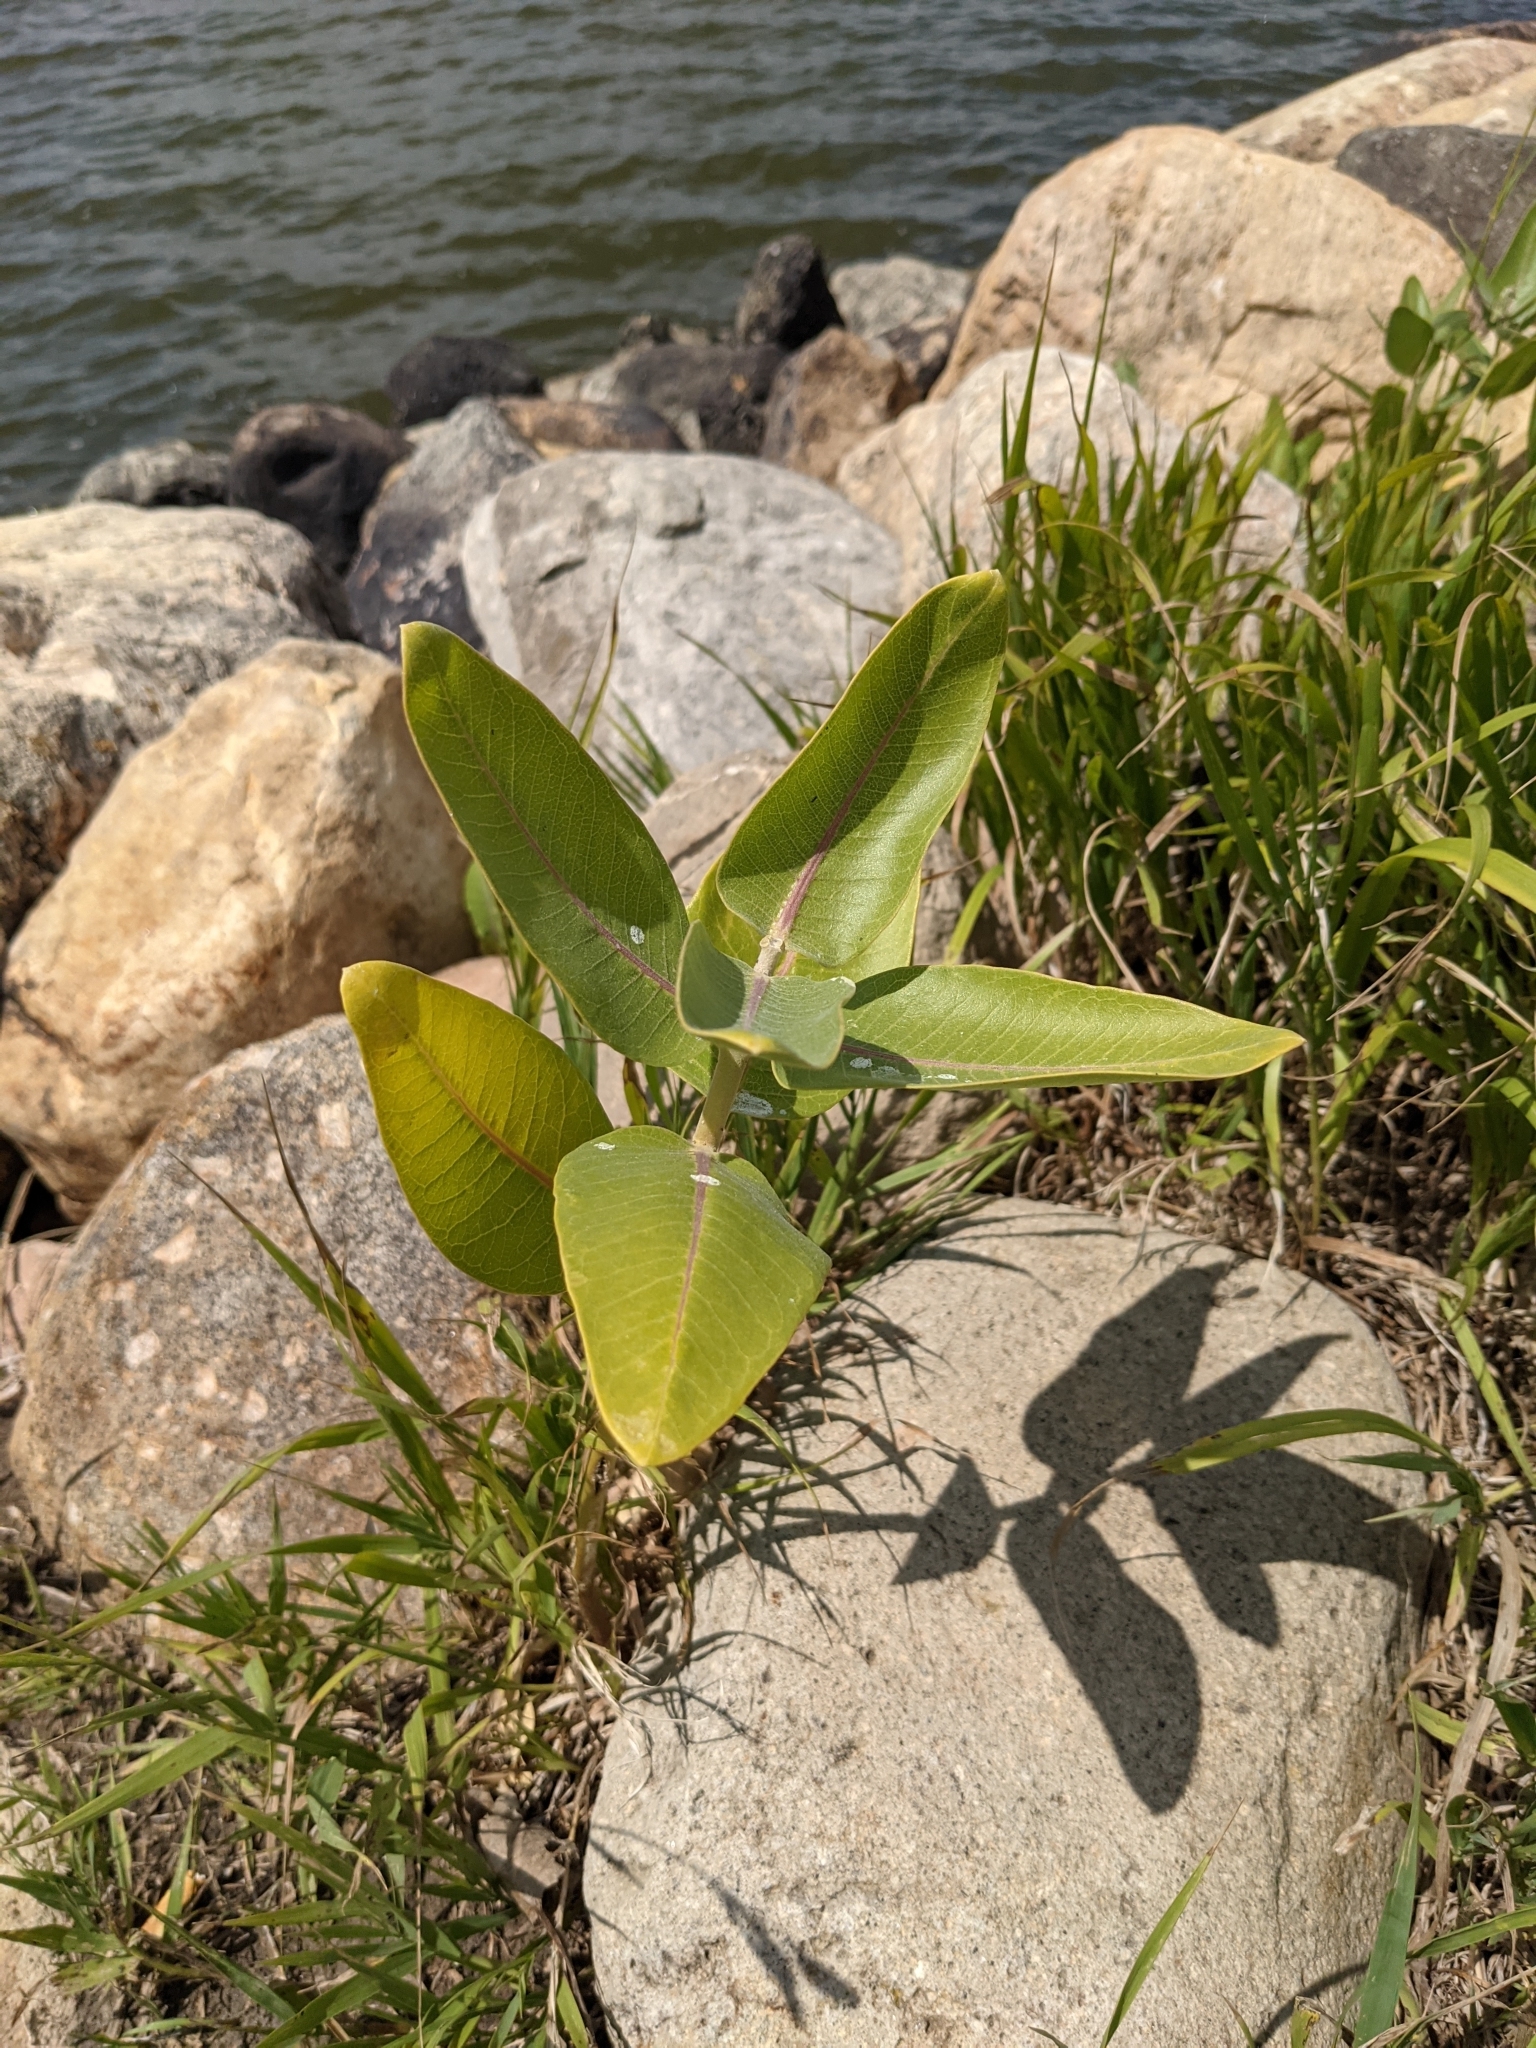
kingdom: Plantae
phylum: Tracheophyta
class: Magnoliopsida
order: Gentianales
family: Apocynaceae
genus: Asclepias
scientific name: Asclepias speciosa
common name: Showy milkweed
